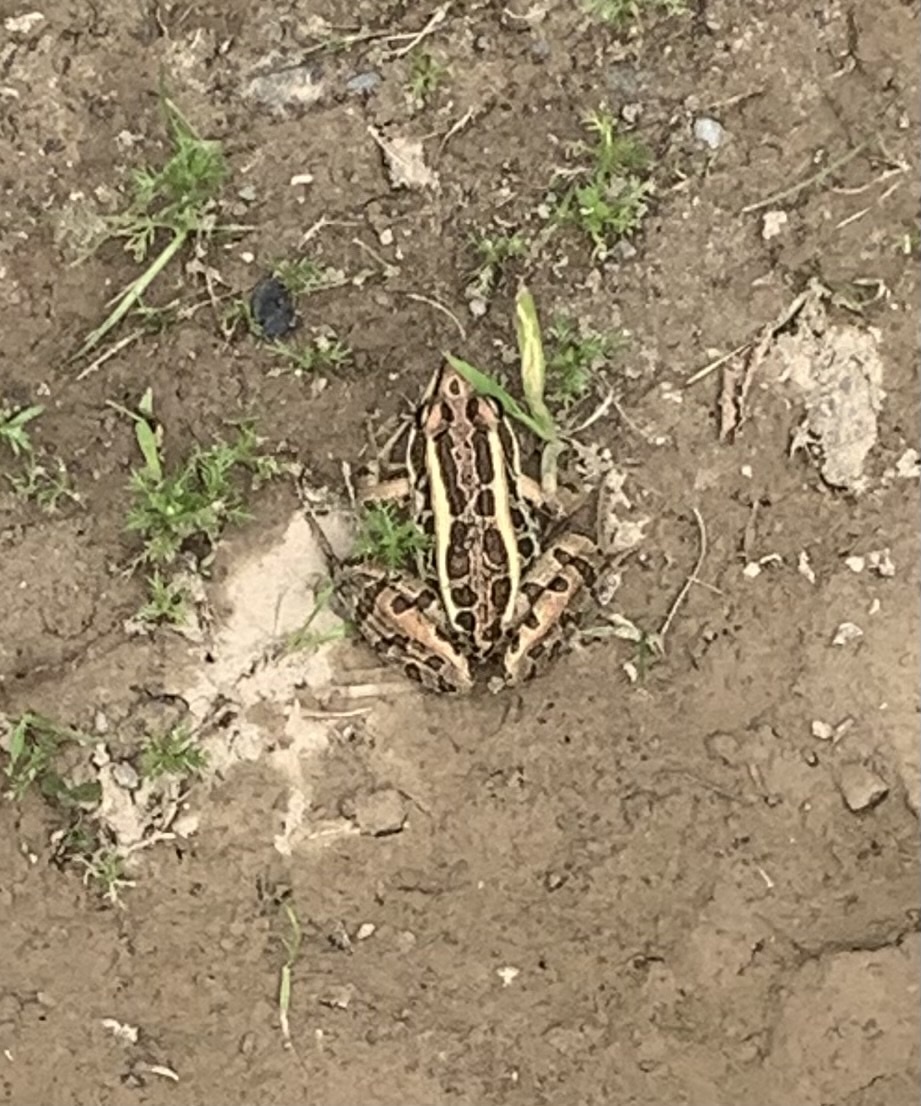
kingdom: Animalia
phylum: Chordata
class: Amphibia
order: Anura
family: Ranidae
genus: Lithobates
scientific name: Lithobates palustris
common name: Pickerel frog
